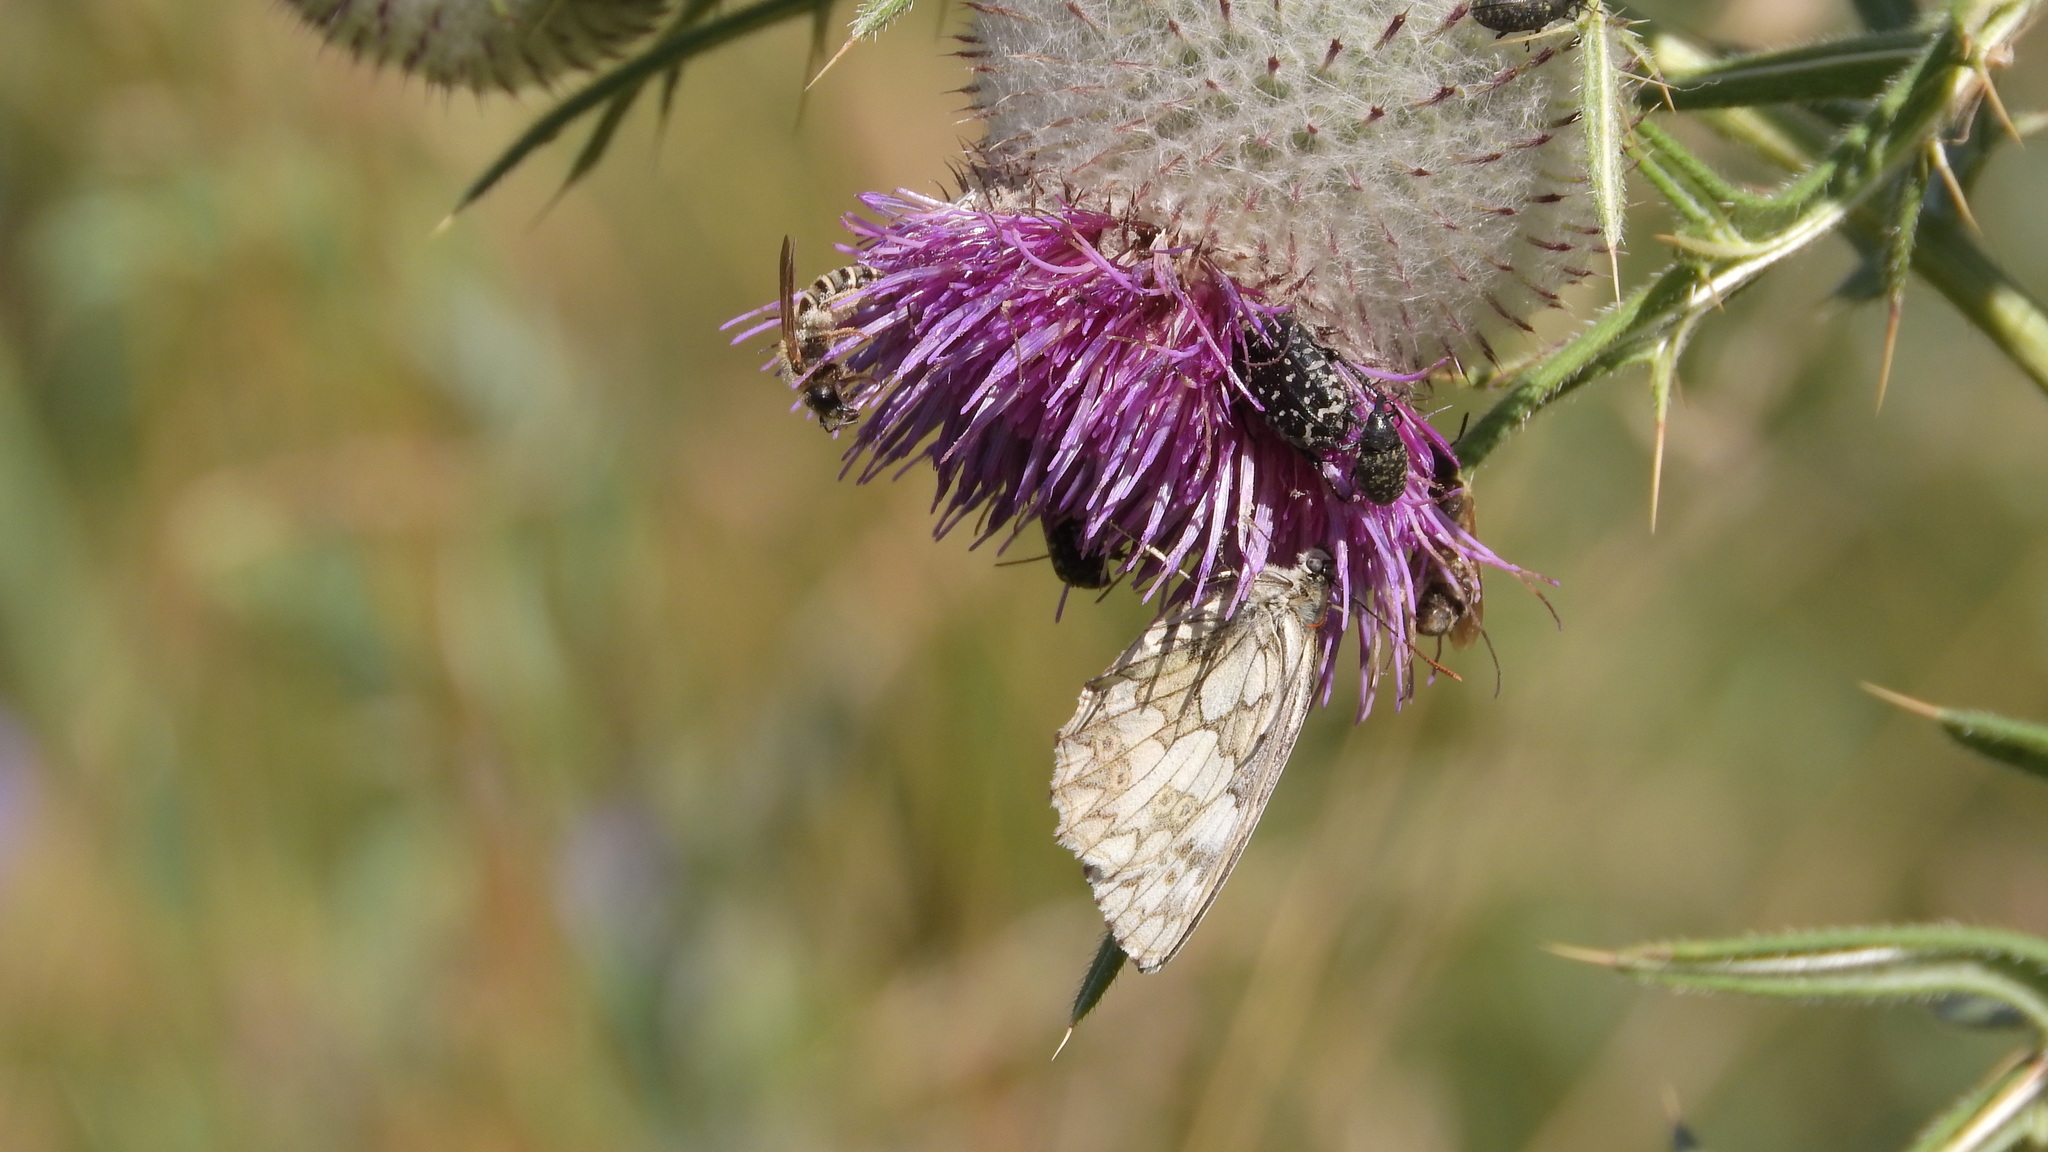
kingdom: Animalia
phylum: Arthropoda
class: Insecta
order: Lepidoptera
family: Nymphalidae
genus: Melanargia
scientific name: Melanargia galathea
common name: Marbled white
